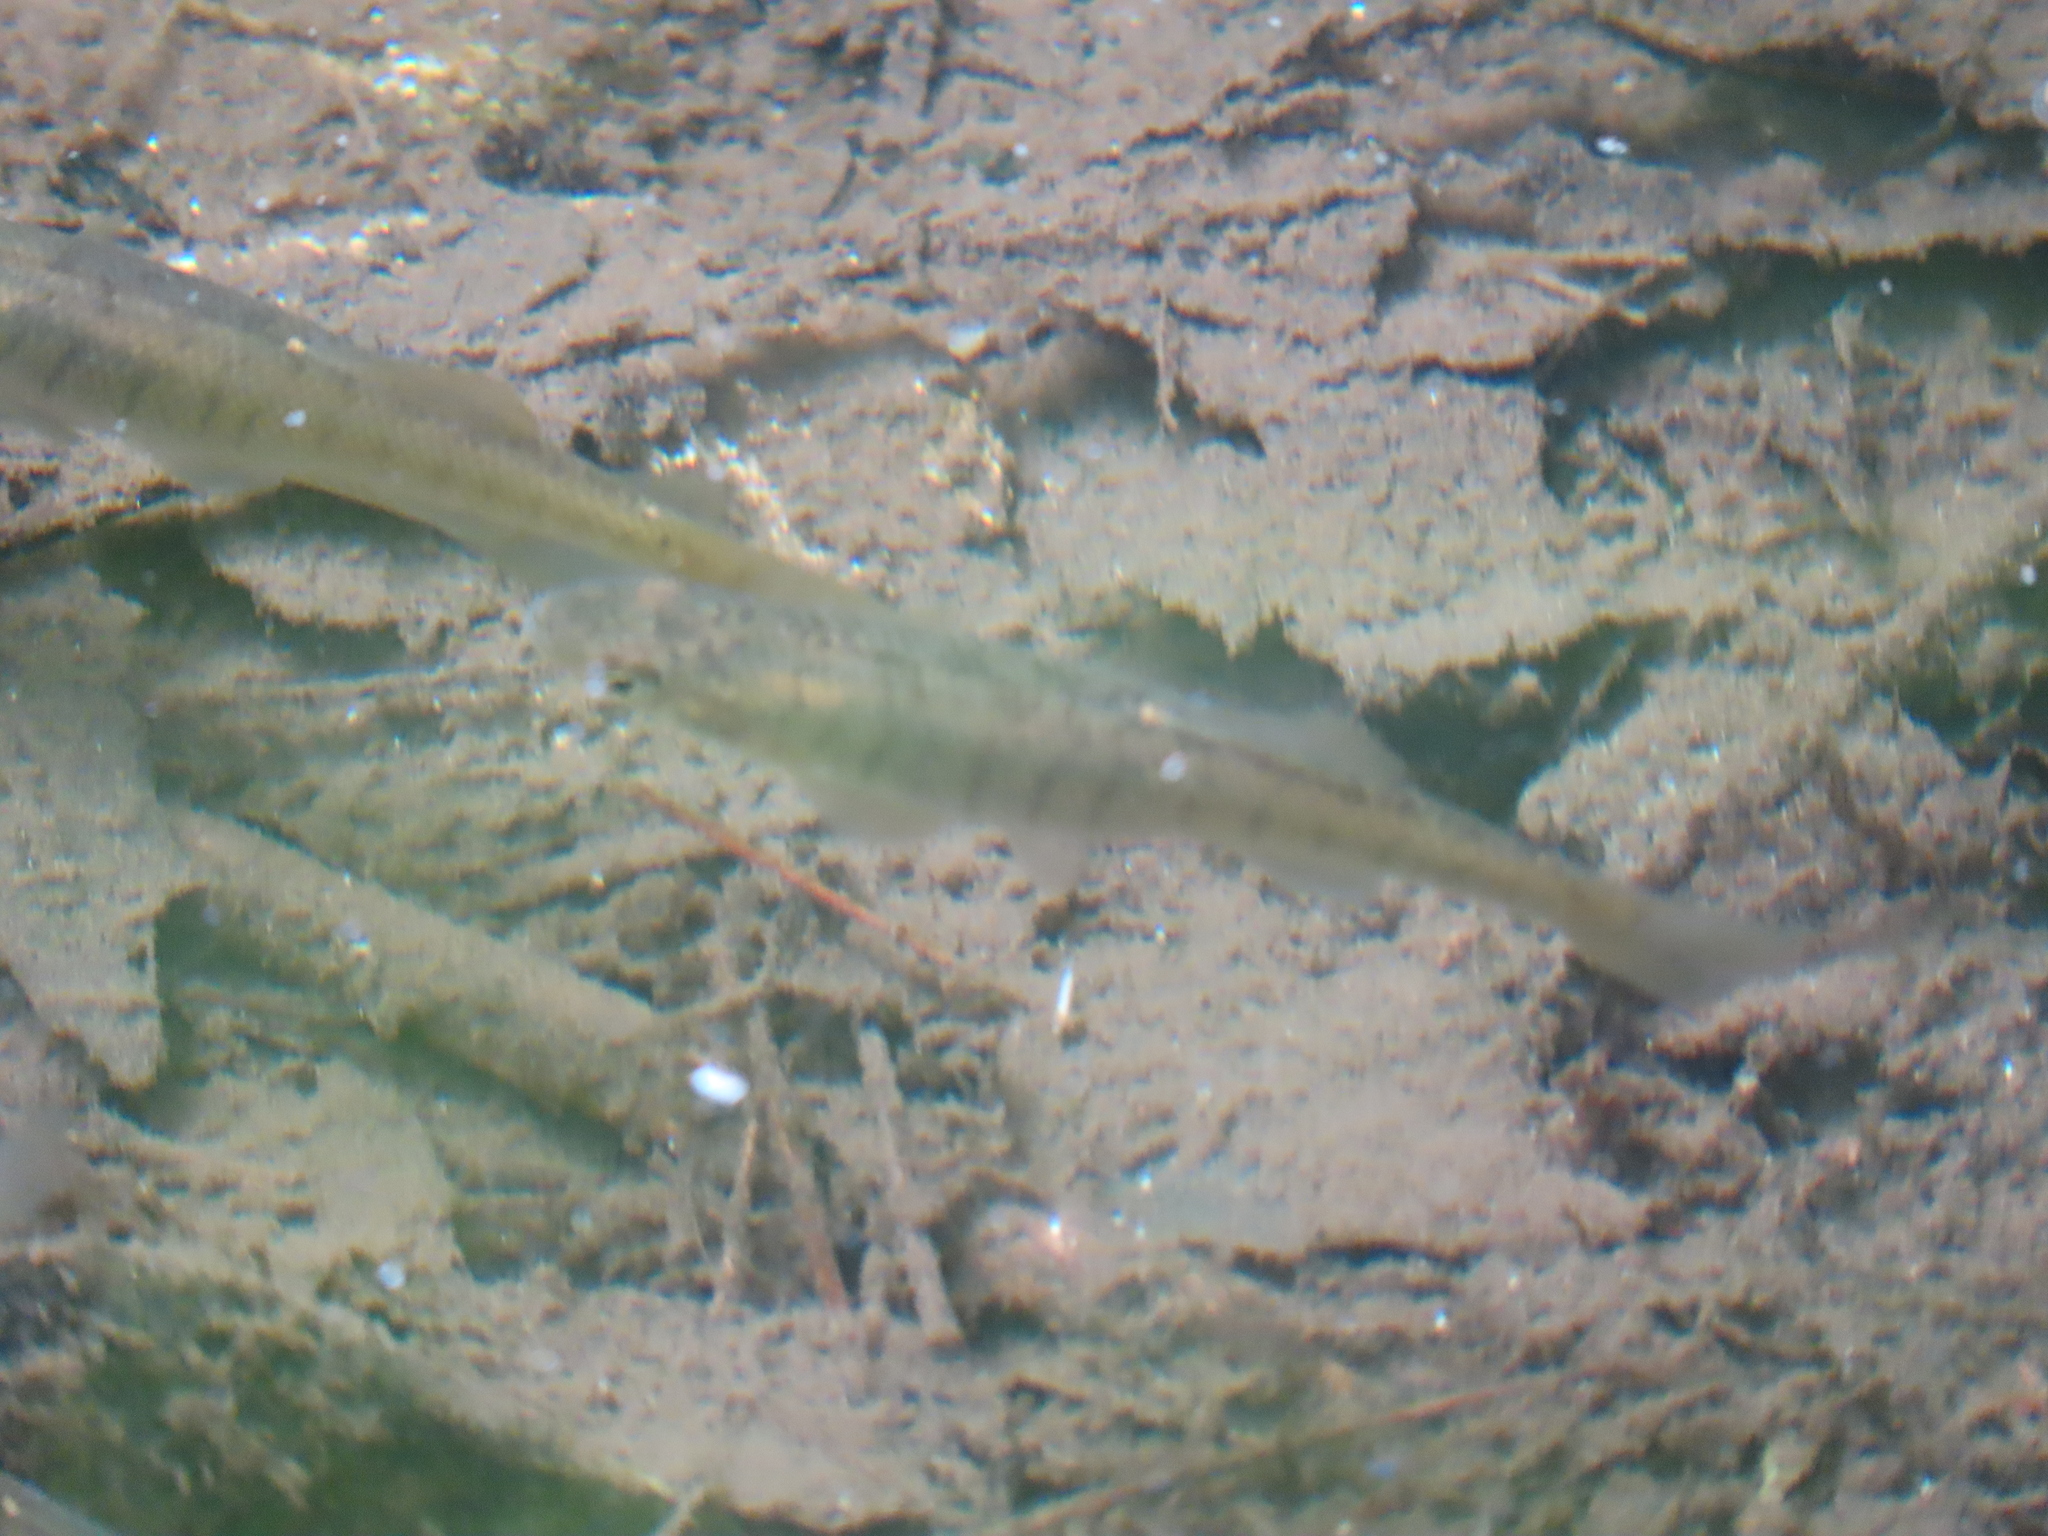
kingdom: Animalia
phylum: Chordata
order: Cyprinodontiformes
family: Fundulidae
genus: Fundulus
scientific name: Fundulus diaphanus
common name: Banded killifish
